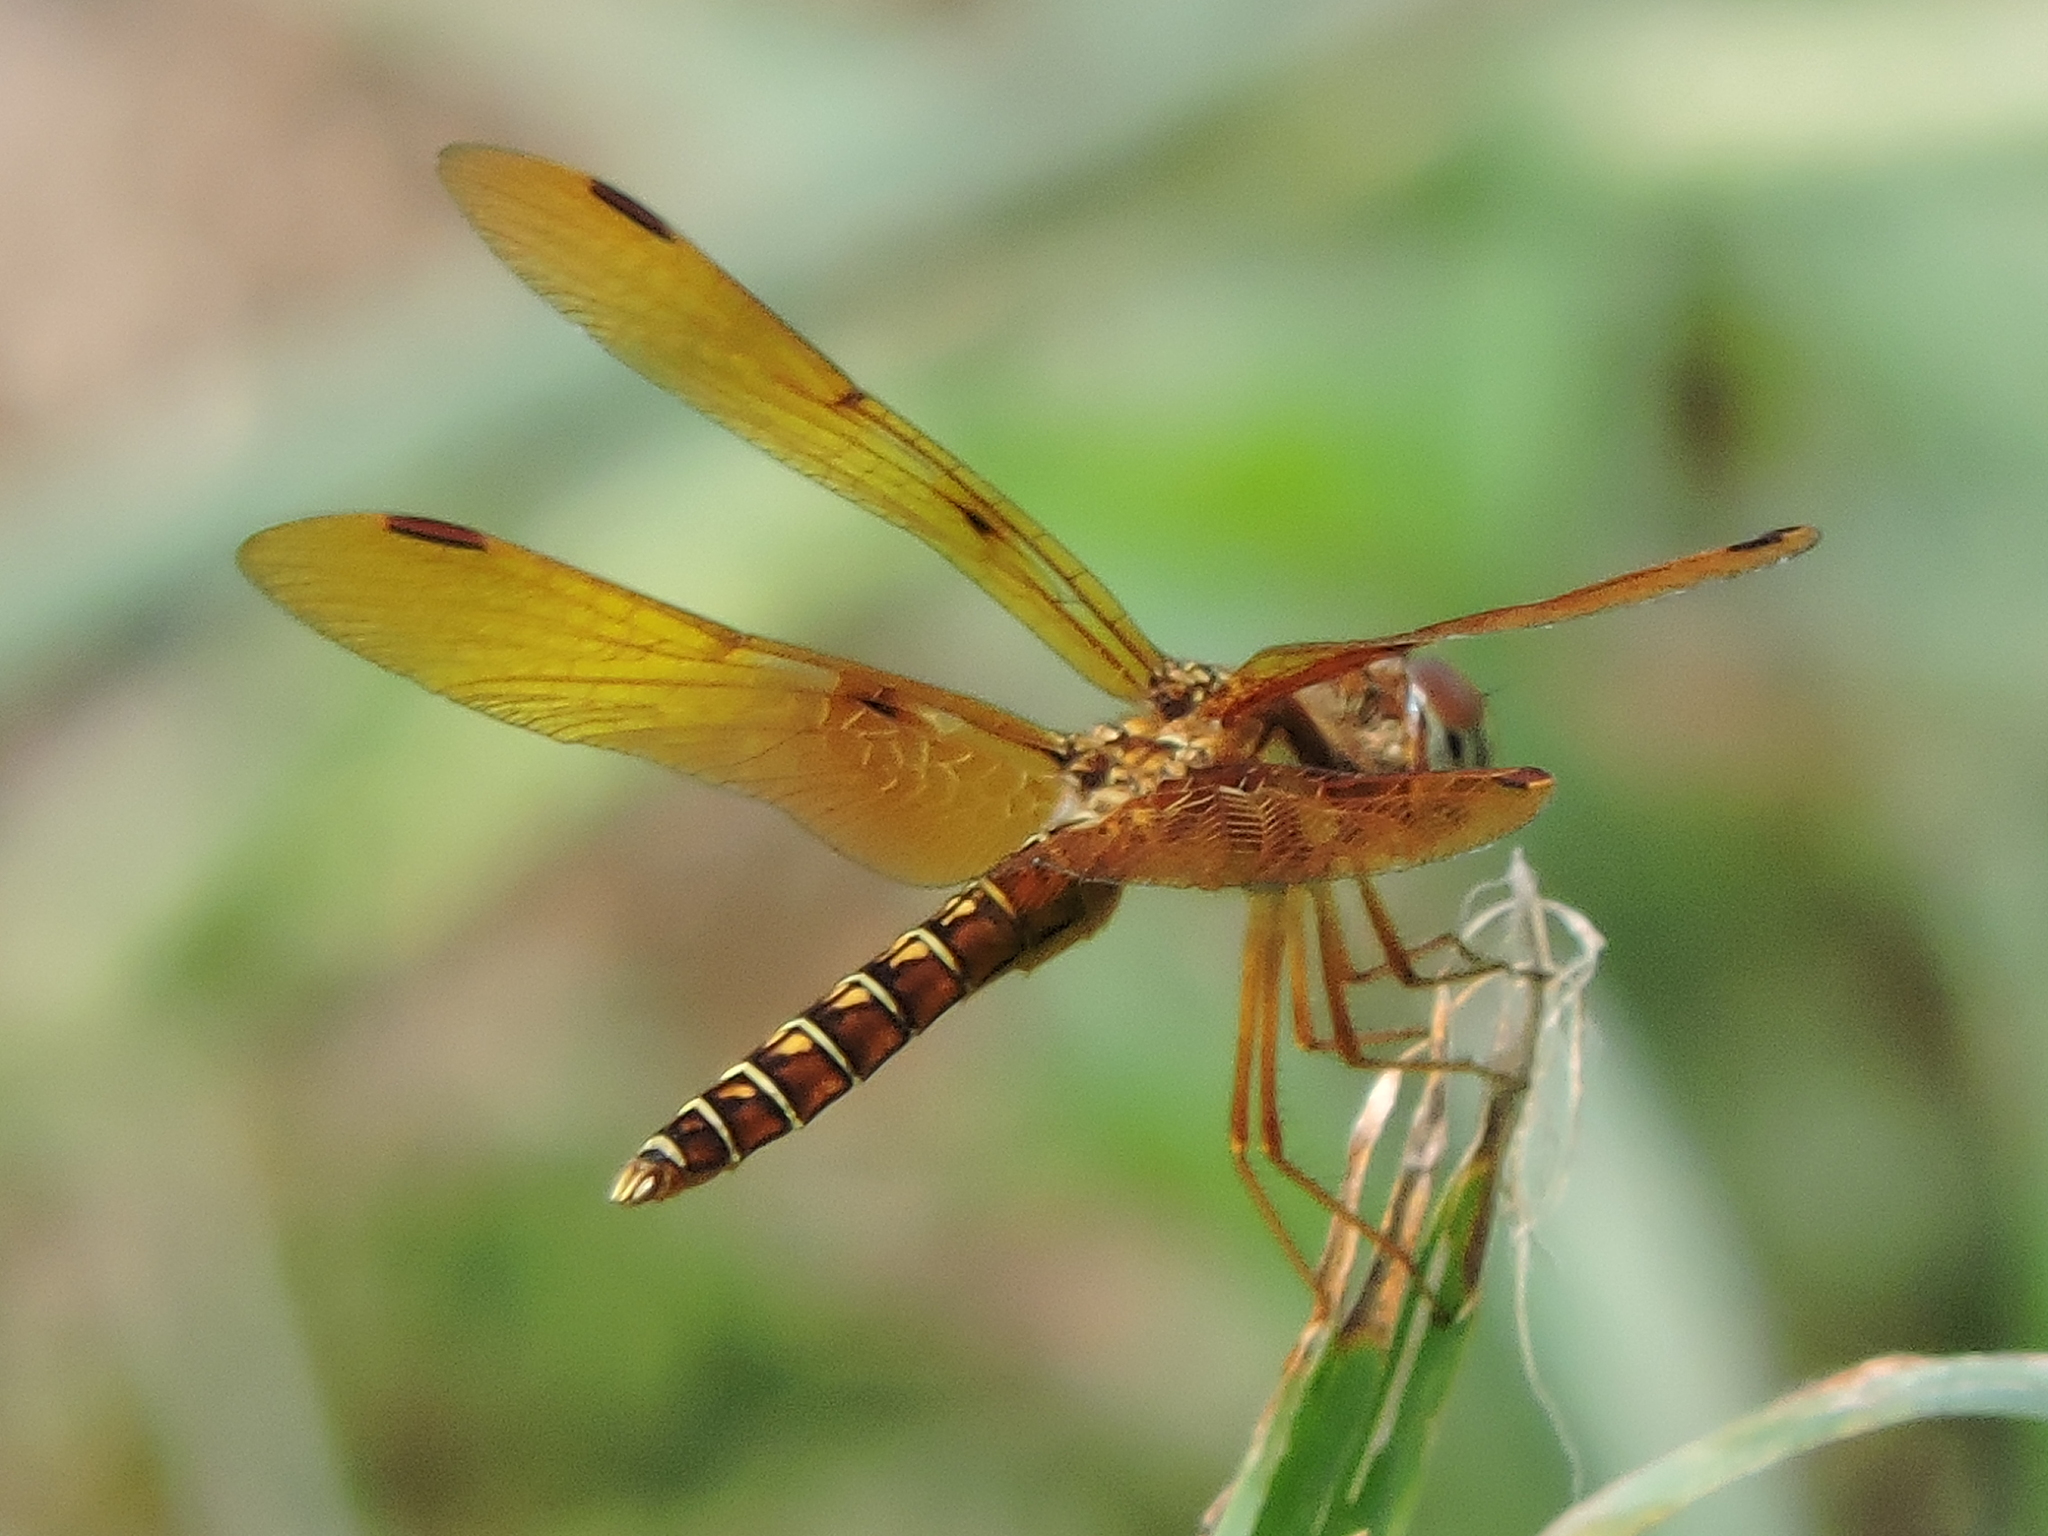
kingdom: Animalia
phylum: Arthropoda
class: Insecta
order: Odonata
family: Libellulidae
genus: Perithemis
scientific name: Perithemis tenera
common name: Eastern amberwing
